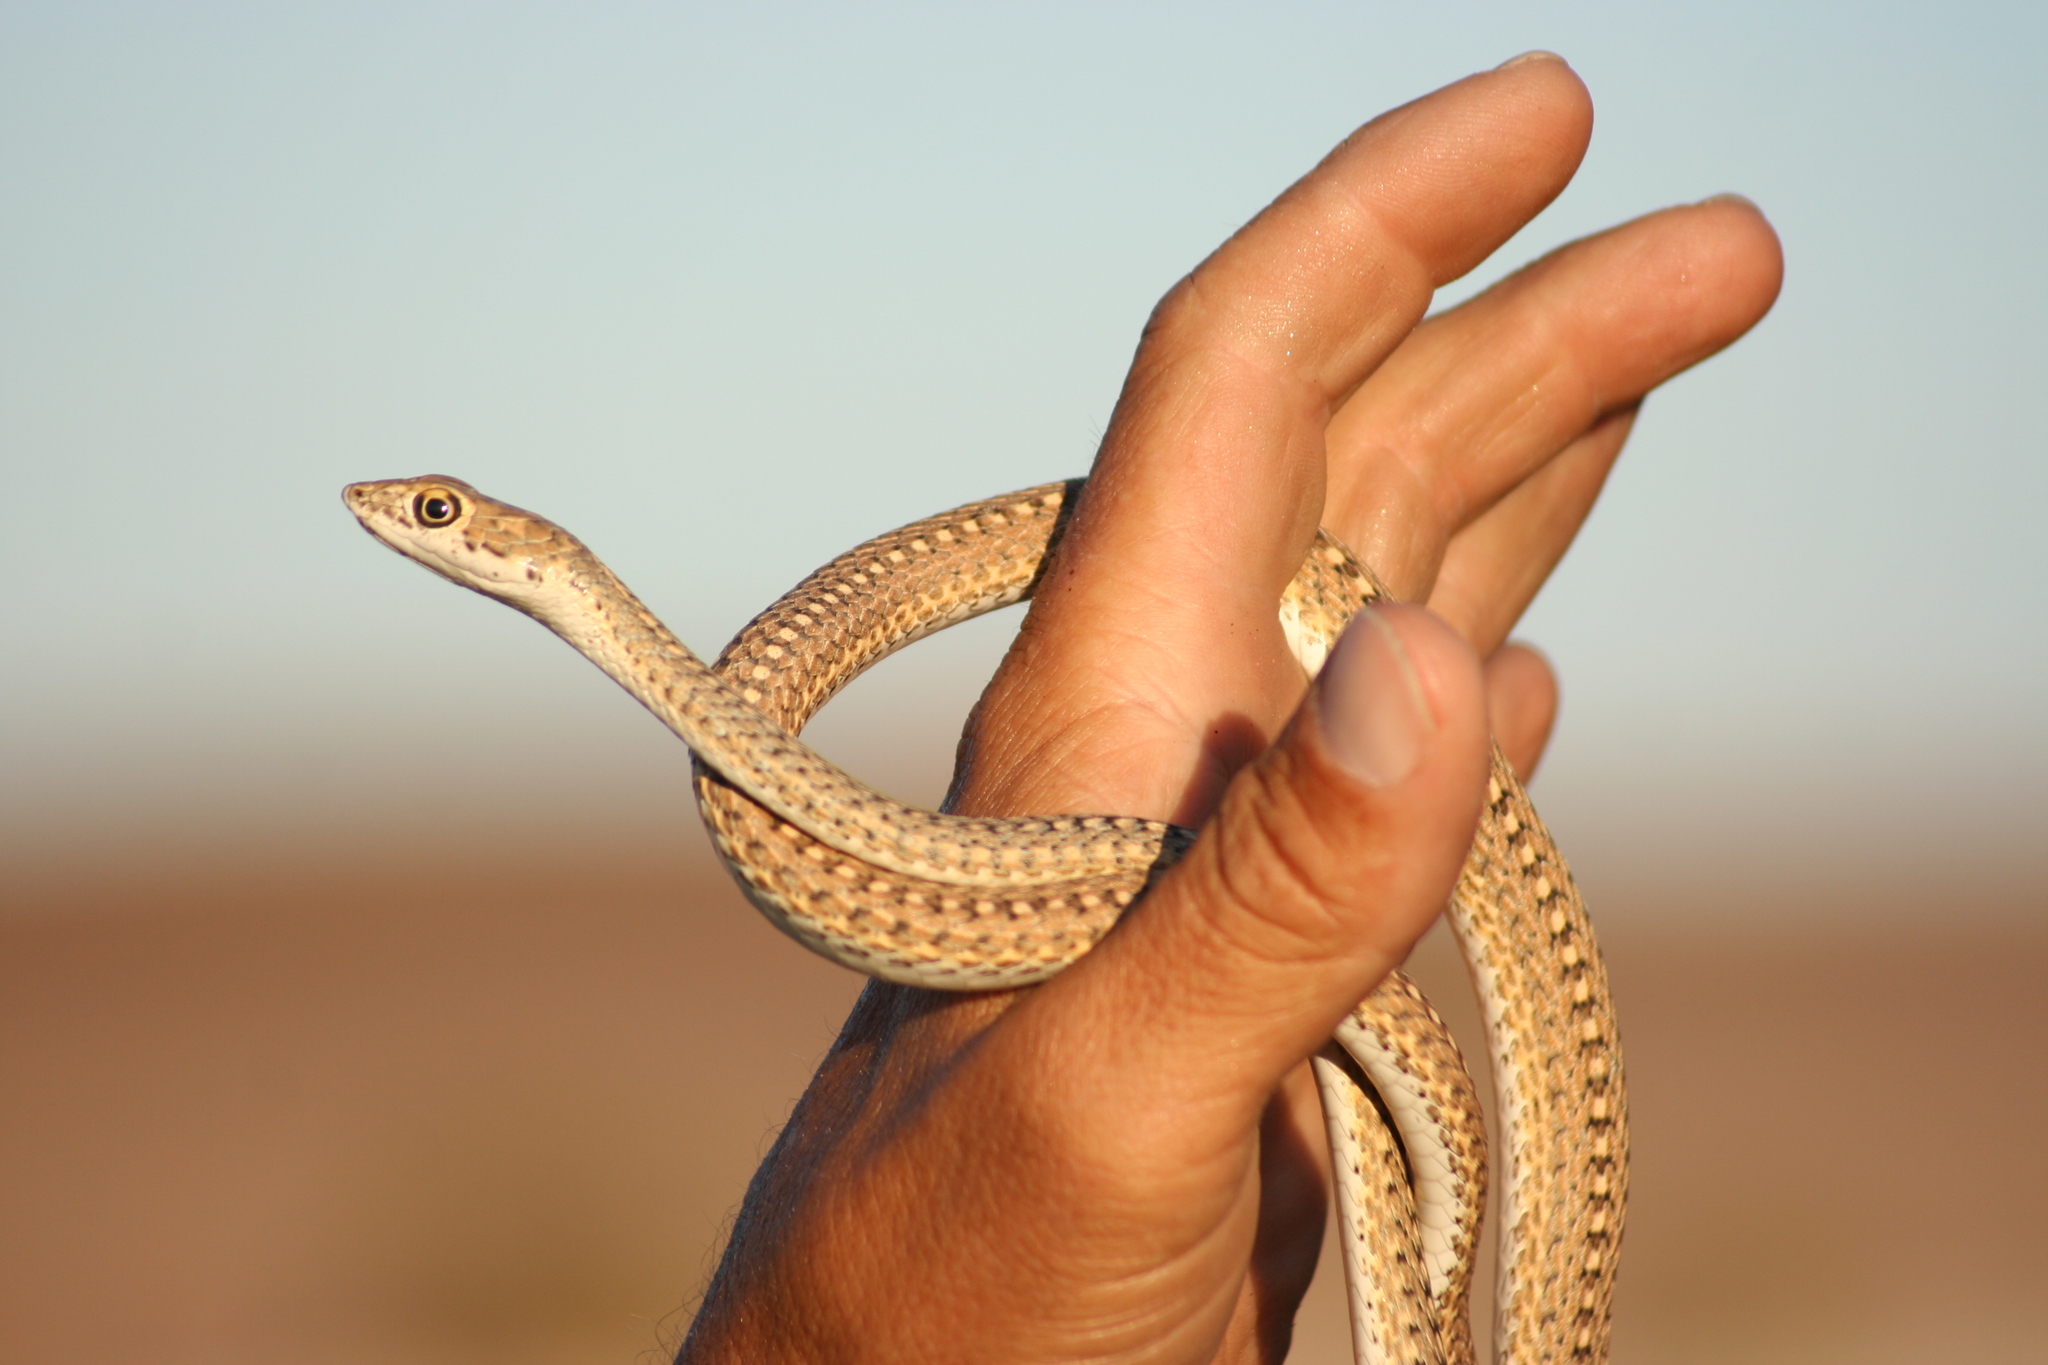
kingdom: Animalia
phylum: Chordata
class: Squamata
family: Psammophiidae
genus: Psammophis
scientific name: Psammophis leightoni
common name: Cape sand snake
